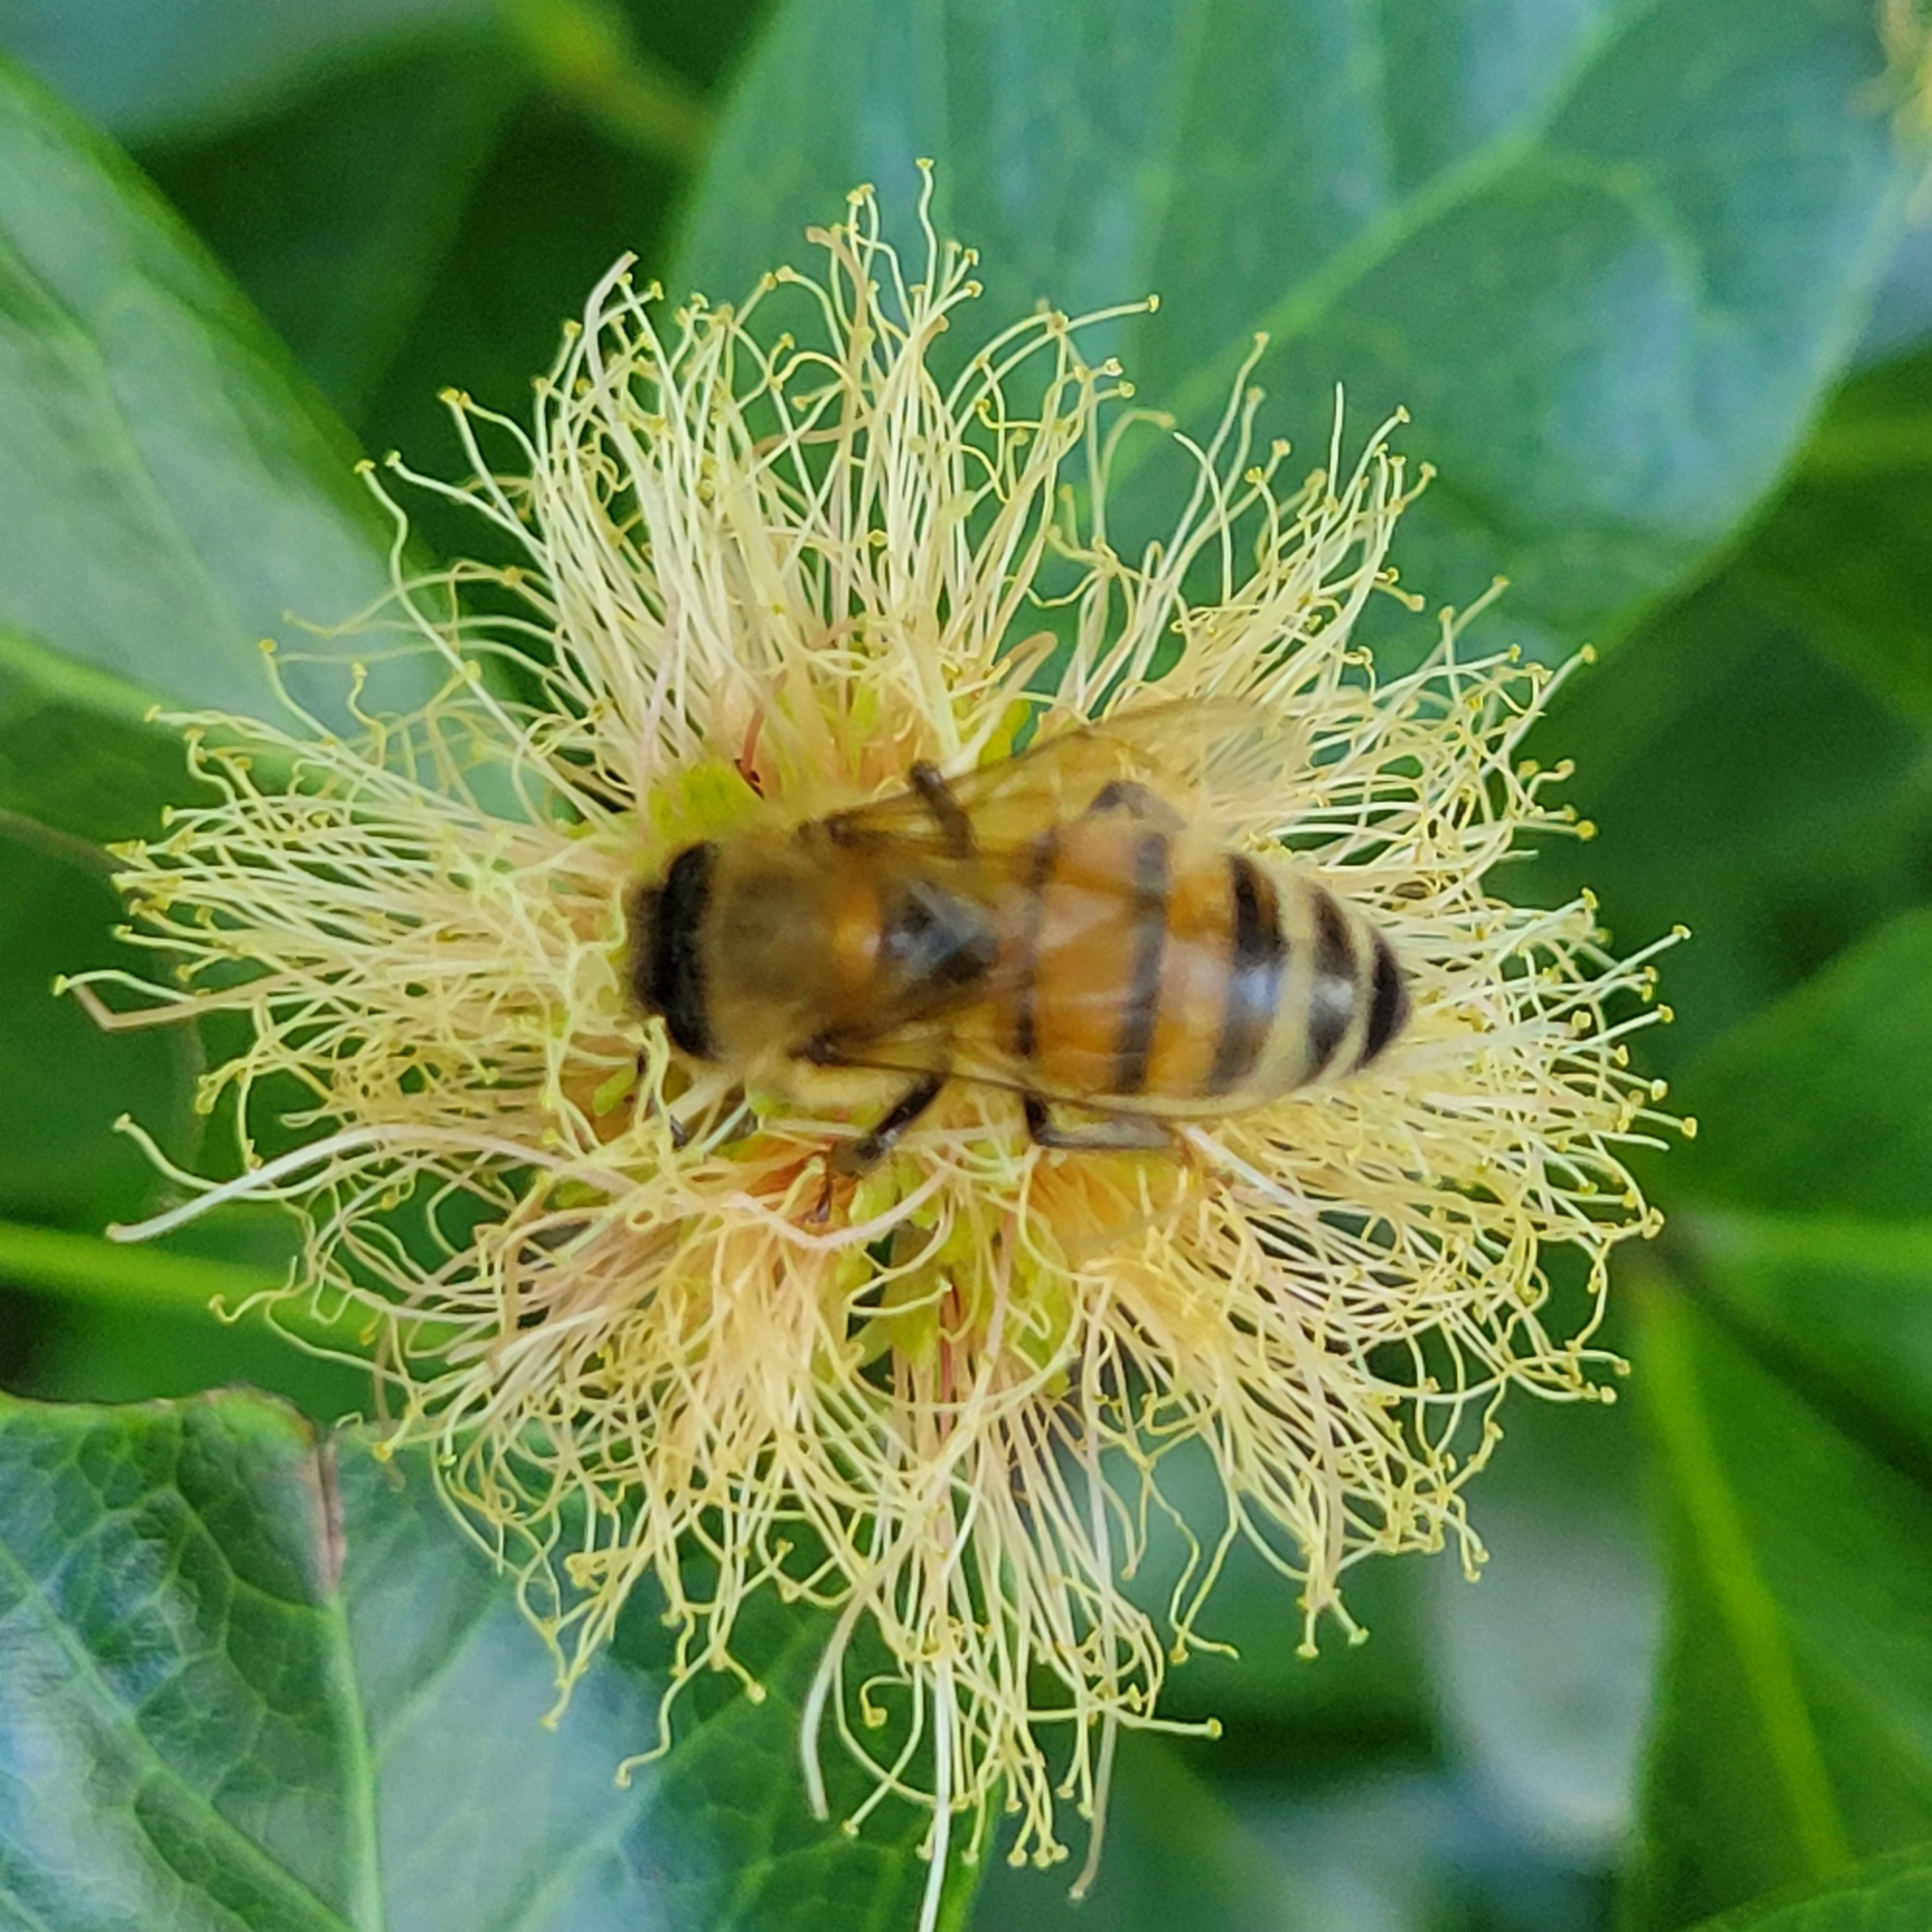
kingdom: Animalia
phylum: Arthropoda
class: Insecta
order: Hymenoptera
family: Apidae
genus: Apis
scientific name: Apis mellifera
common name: Honey bee
